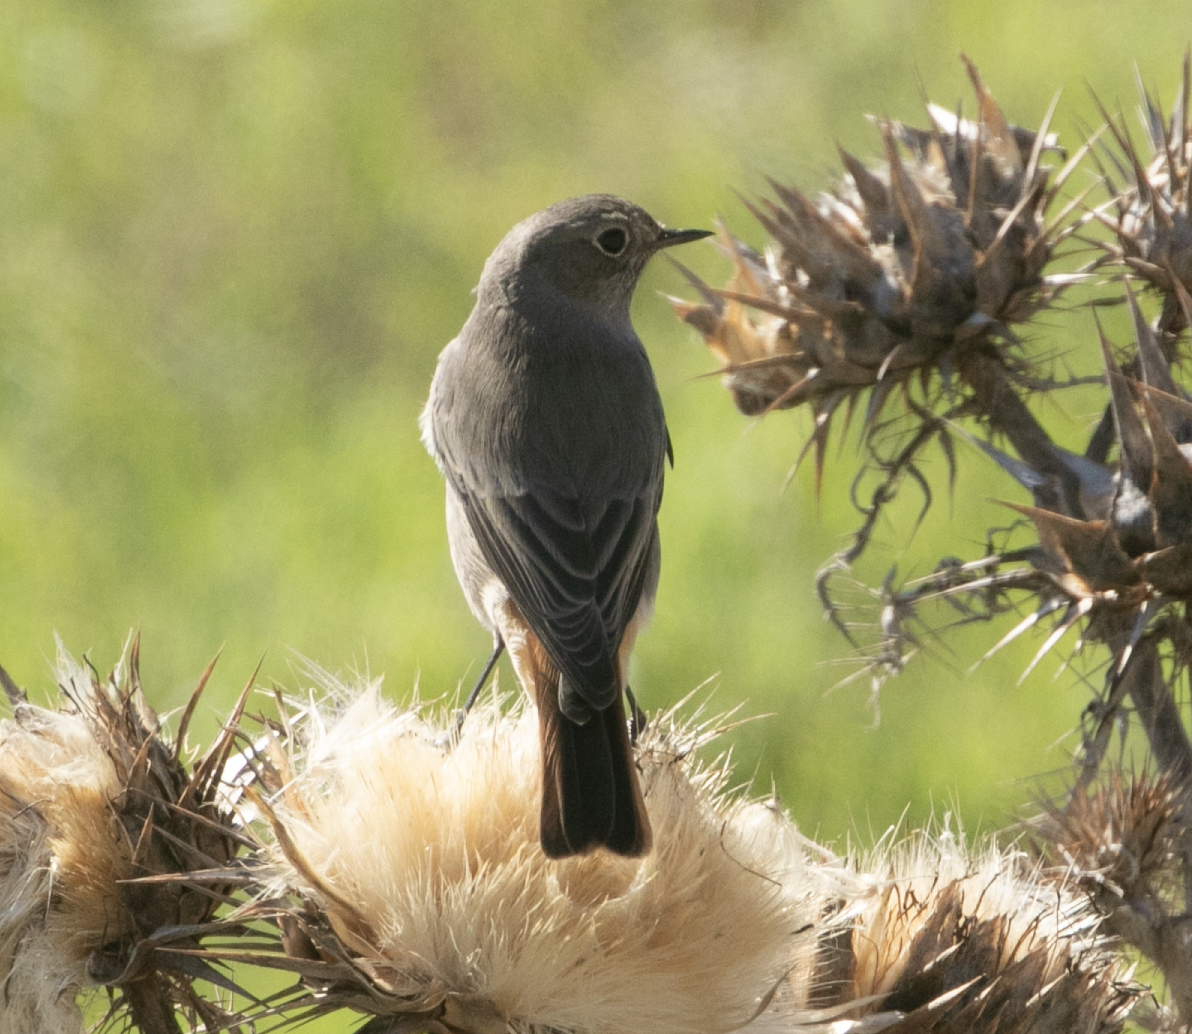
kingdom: Animalia
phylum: Chordata
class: Aves
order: Passeriformes
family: Muscicapidae
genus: Phoenicurus
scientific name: Phoenicurus ochruros
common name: Black redstart
